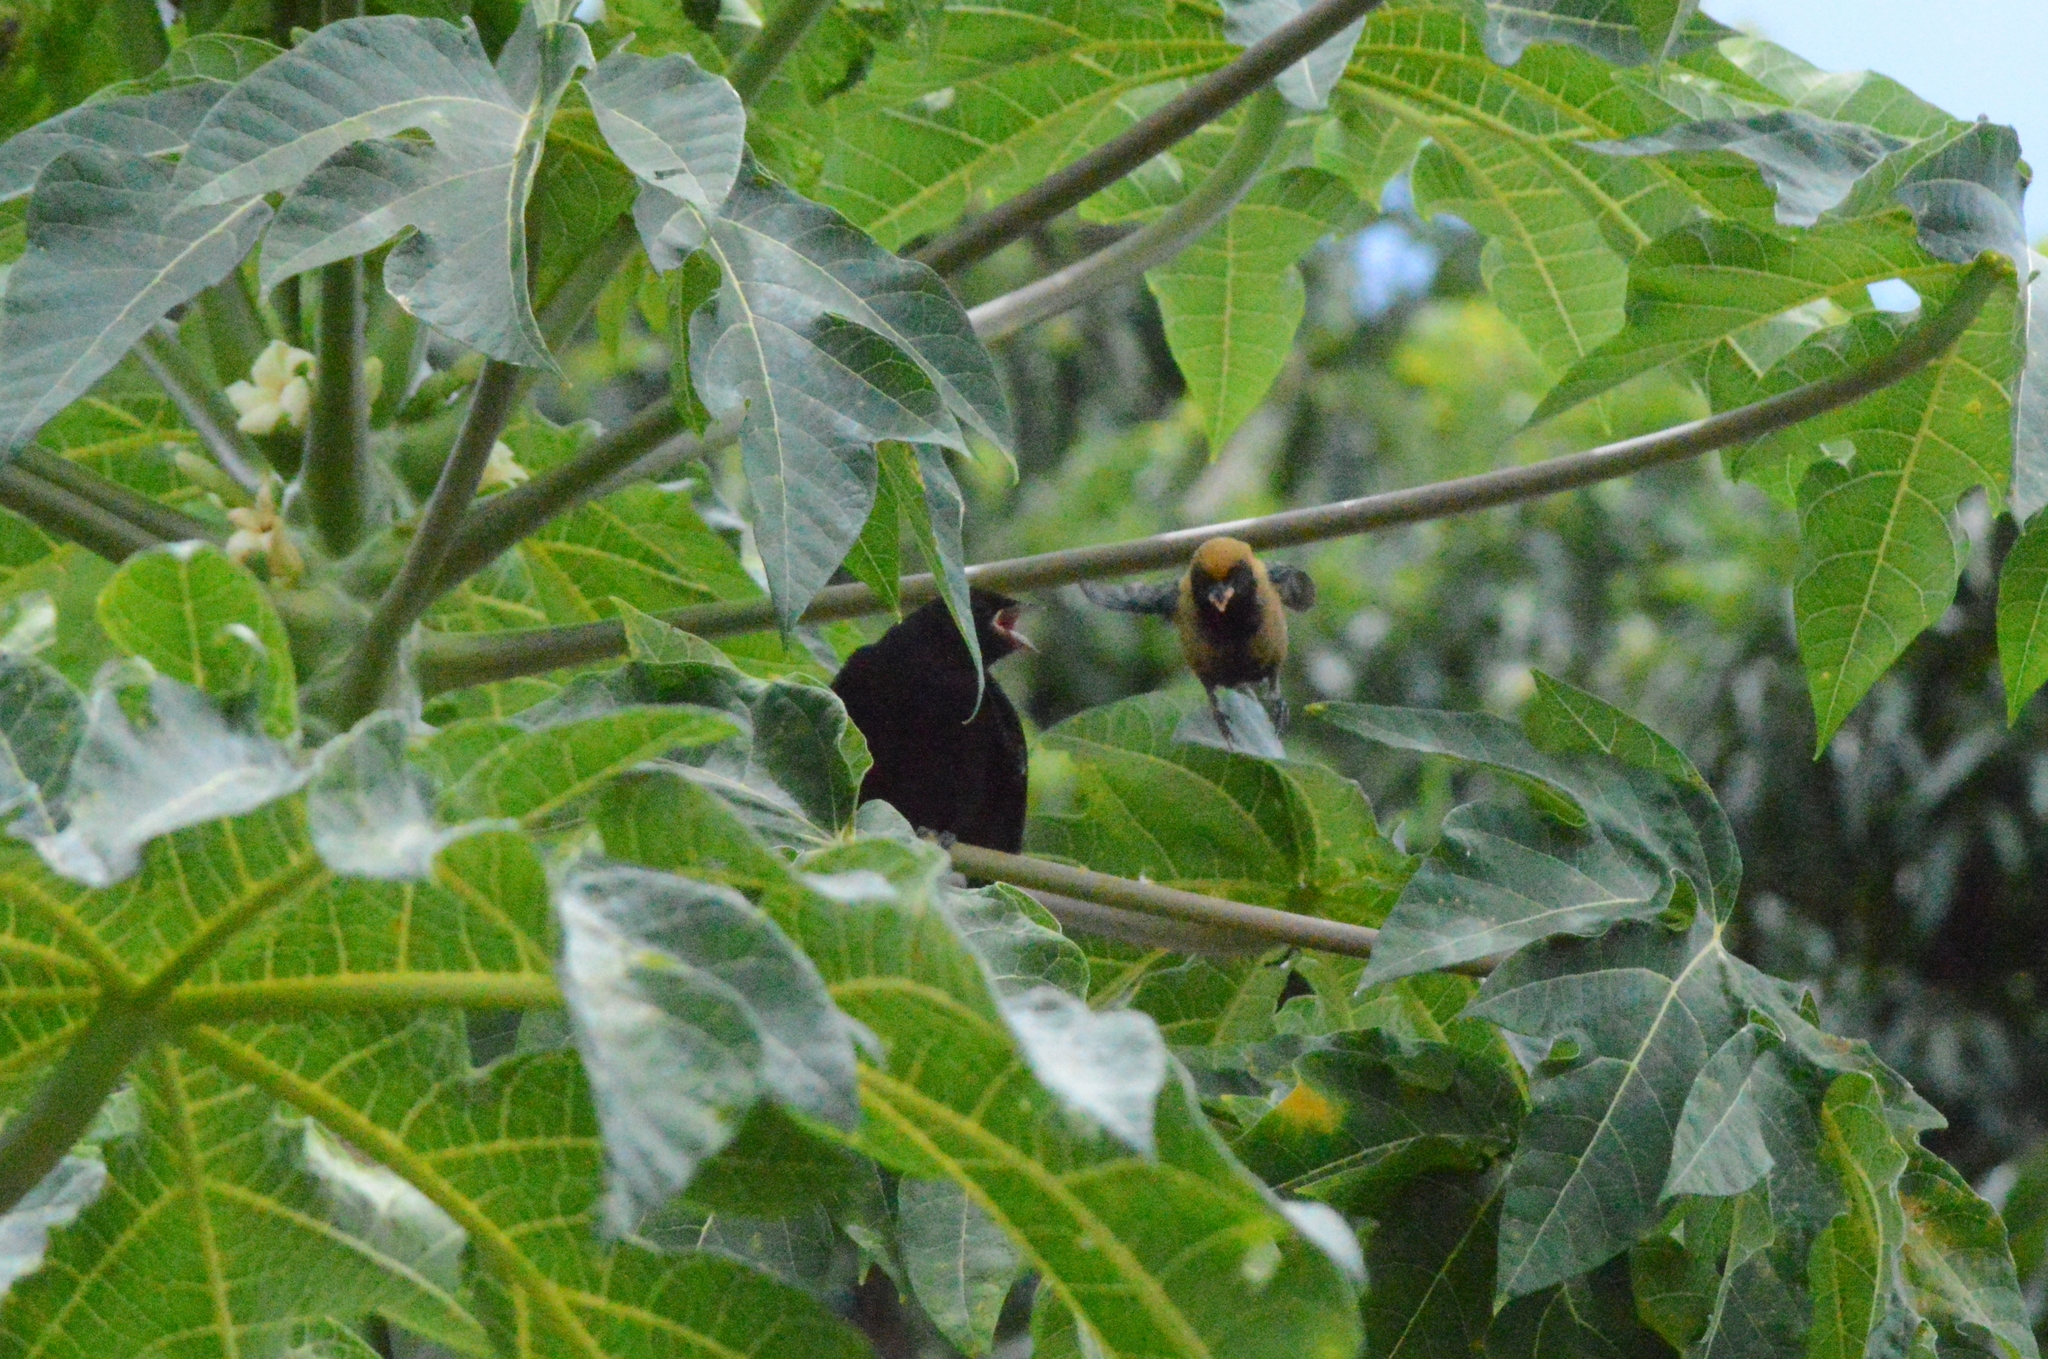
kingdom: Animalia
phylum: Chordata
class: Aves
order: Passeriformes
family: Icteridae
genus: Molothrus
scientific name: Molothrus bonariensis
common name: Shiny cowbird
